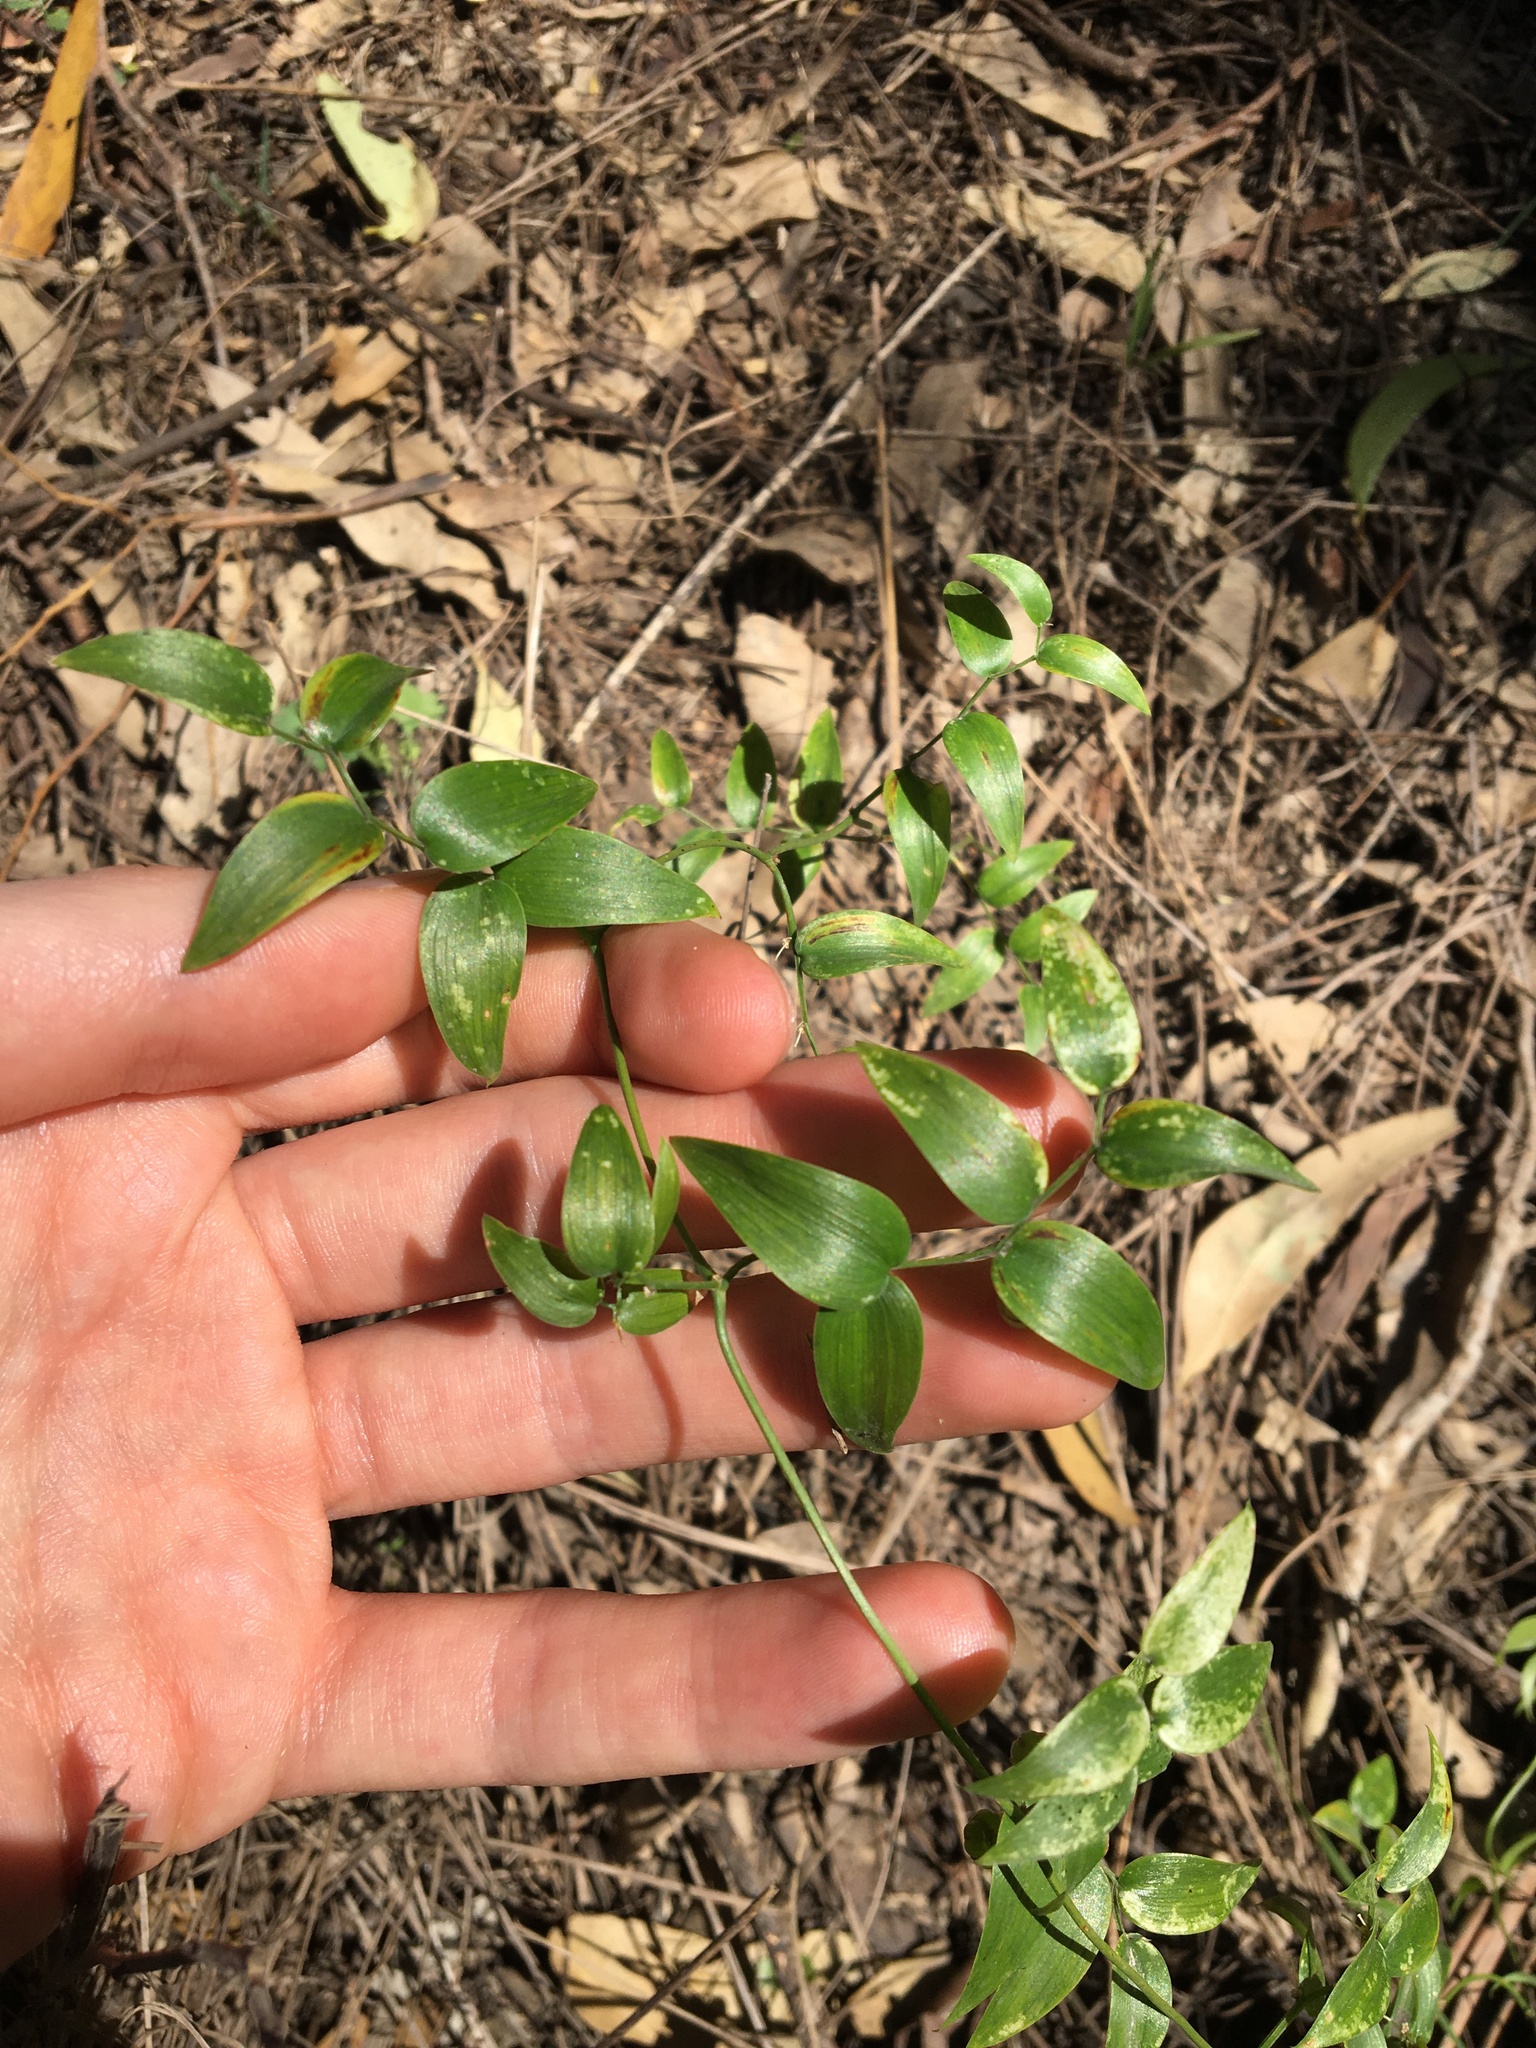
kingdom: Plantae
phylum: Tracheophyta
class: Liliopsida
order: Asparagales
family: Asparagaceae
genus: Asparagus
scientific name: Asparagus asparagoides
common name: African asparagus fern
